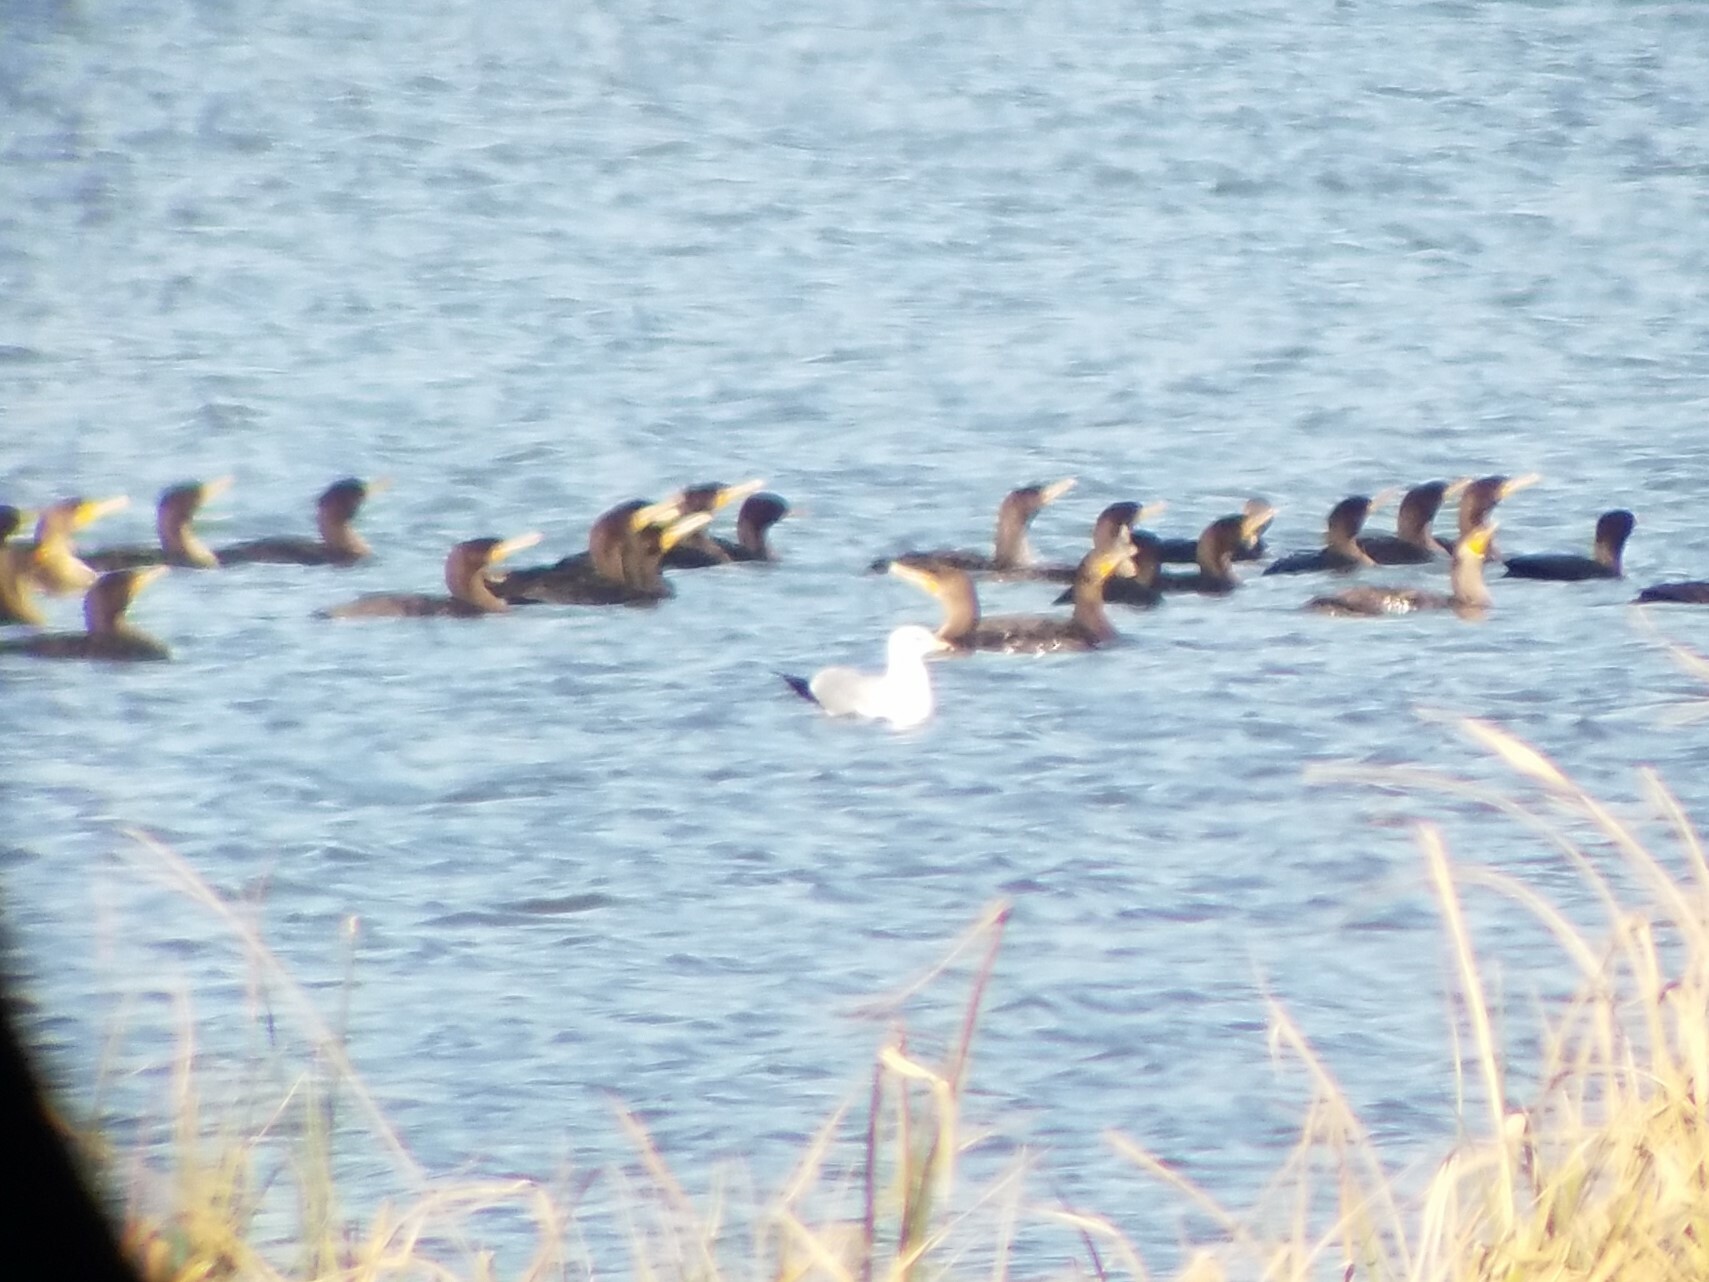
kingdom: Animalia
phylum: Chordata
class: Aves
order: Charadriiformes
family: Laridae
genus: Larus
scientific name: Larus delawarensis
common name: Ring-billed gull
